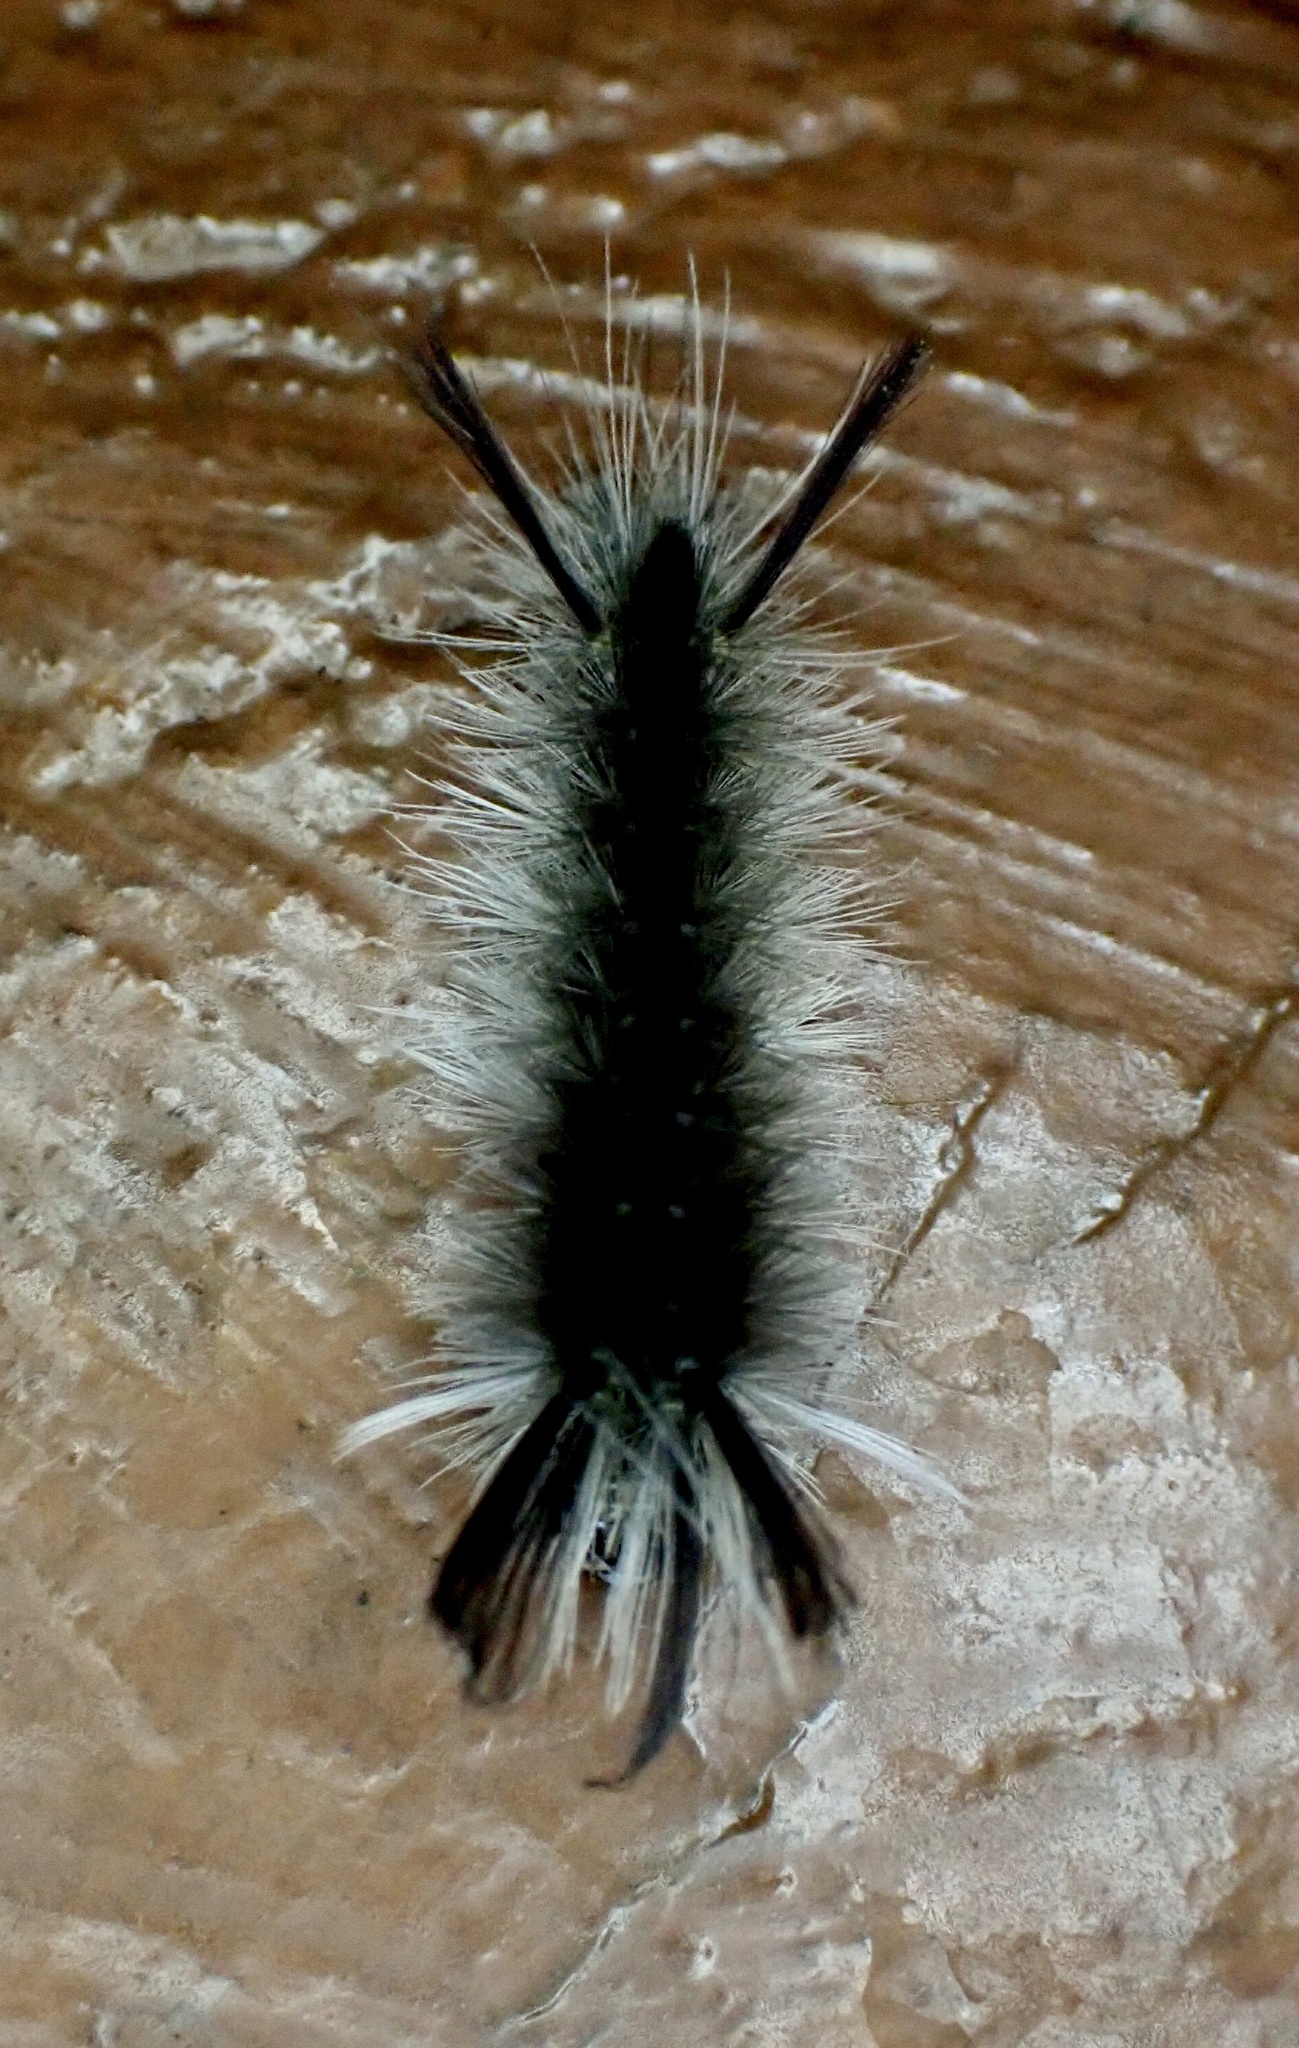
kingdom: Animalia
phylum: Arthropoda
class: Insecta
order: Lepidoptera
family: Erebidae
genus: Halysidota
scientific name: Halysidota tessellaris
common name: Banded tussock moth
